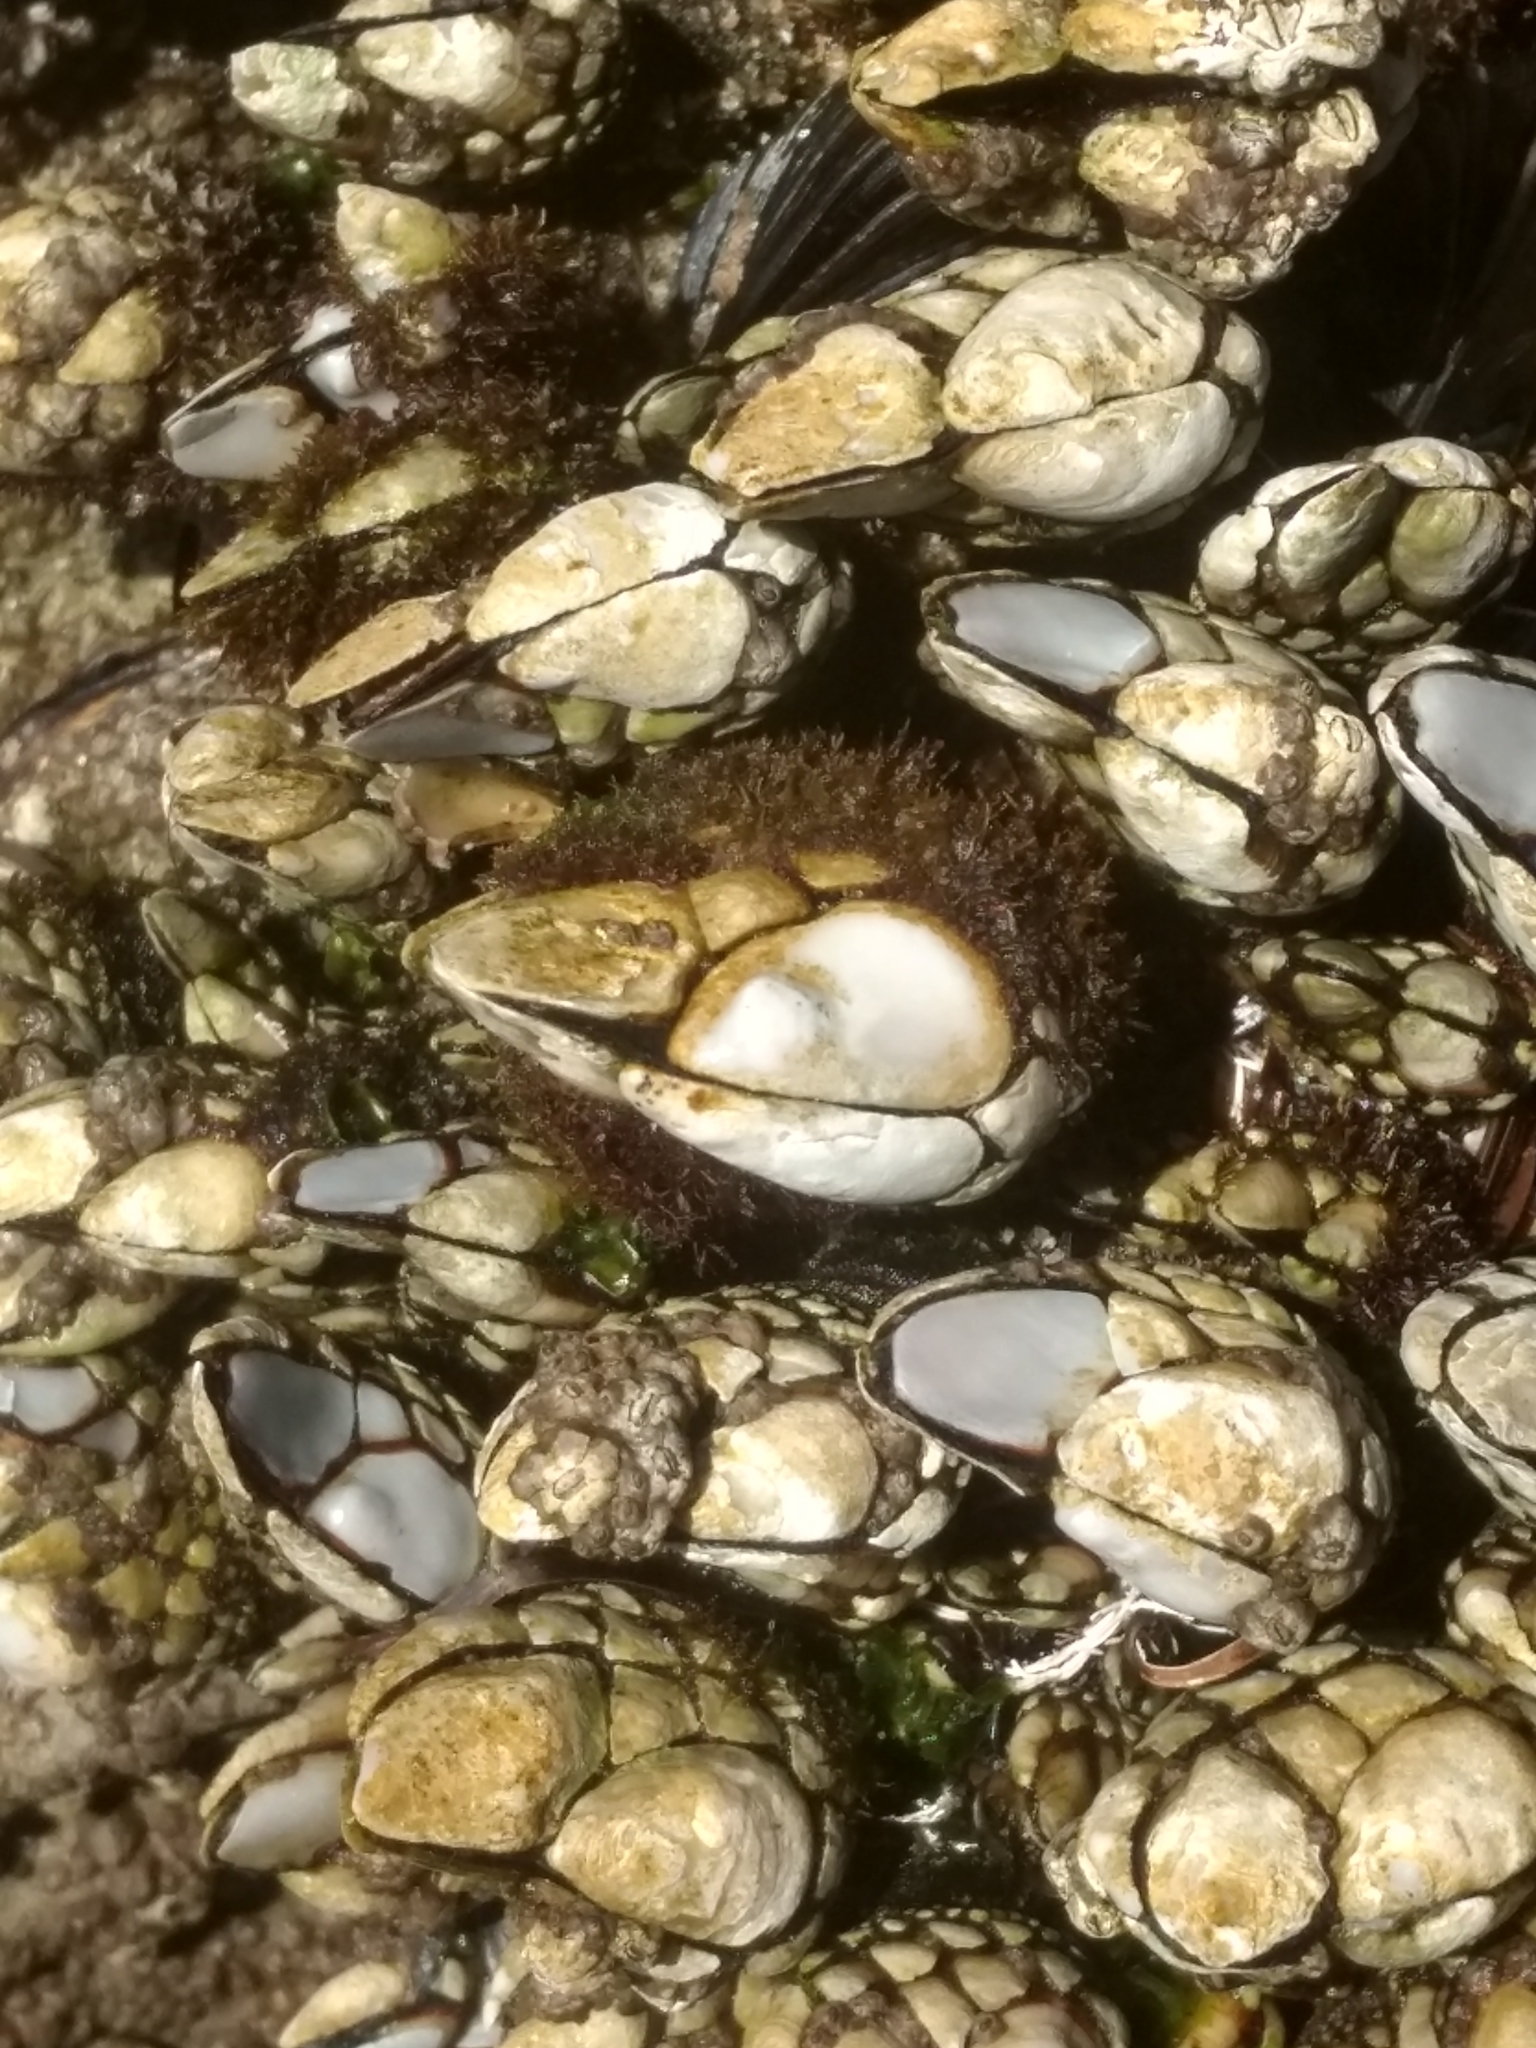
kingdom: Animalia
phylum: Arthropoda
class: Maxillopoda
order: Pedunculata
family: Pollicipedidae
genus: Pollicipes
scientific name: Pollicipes polymerus
